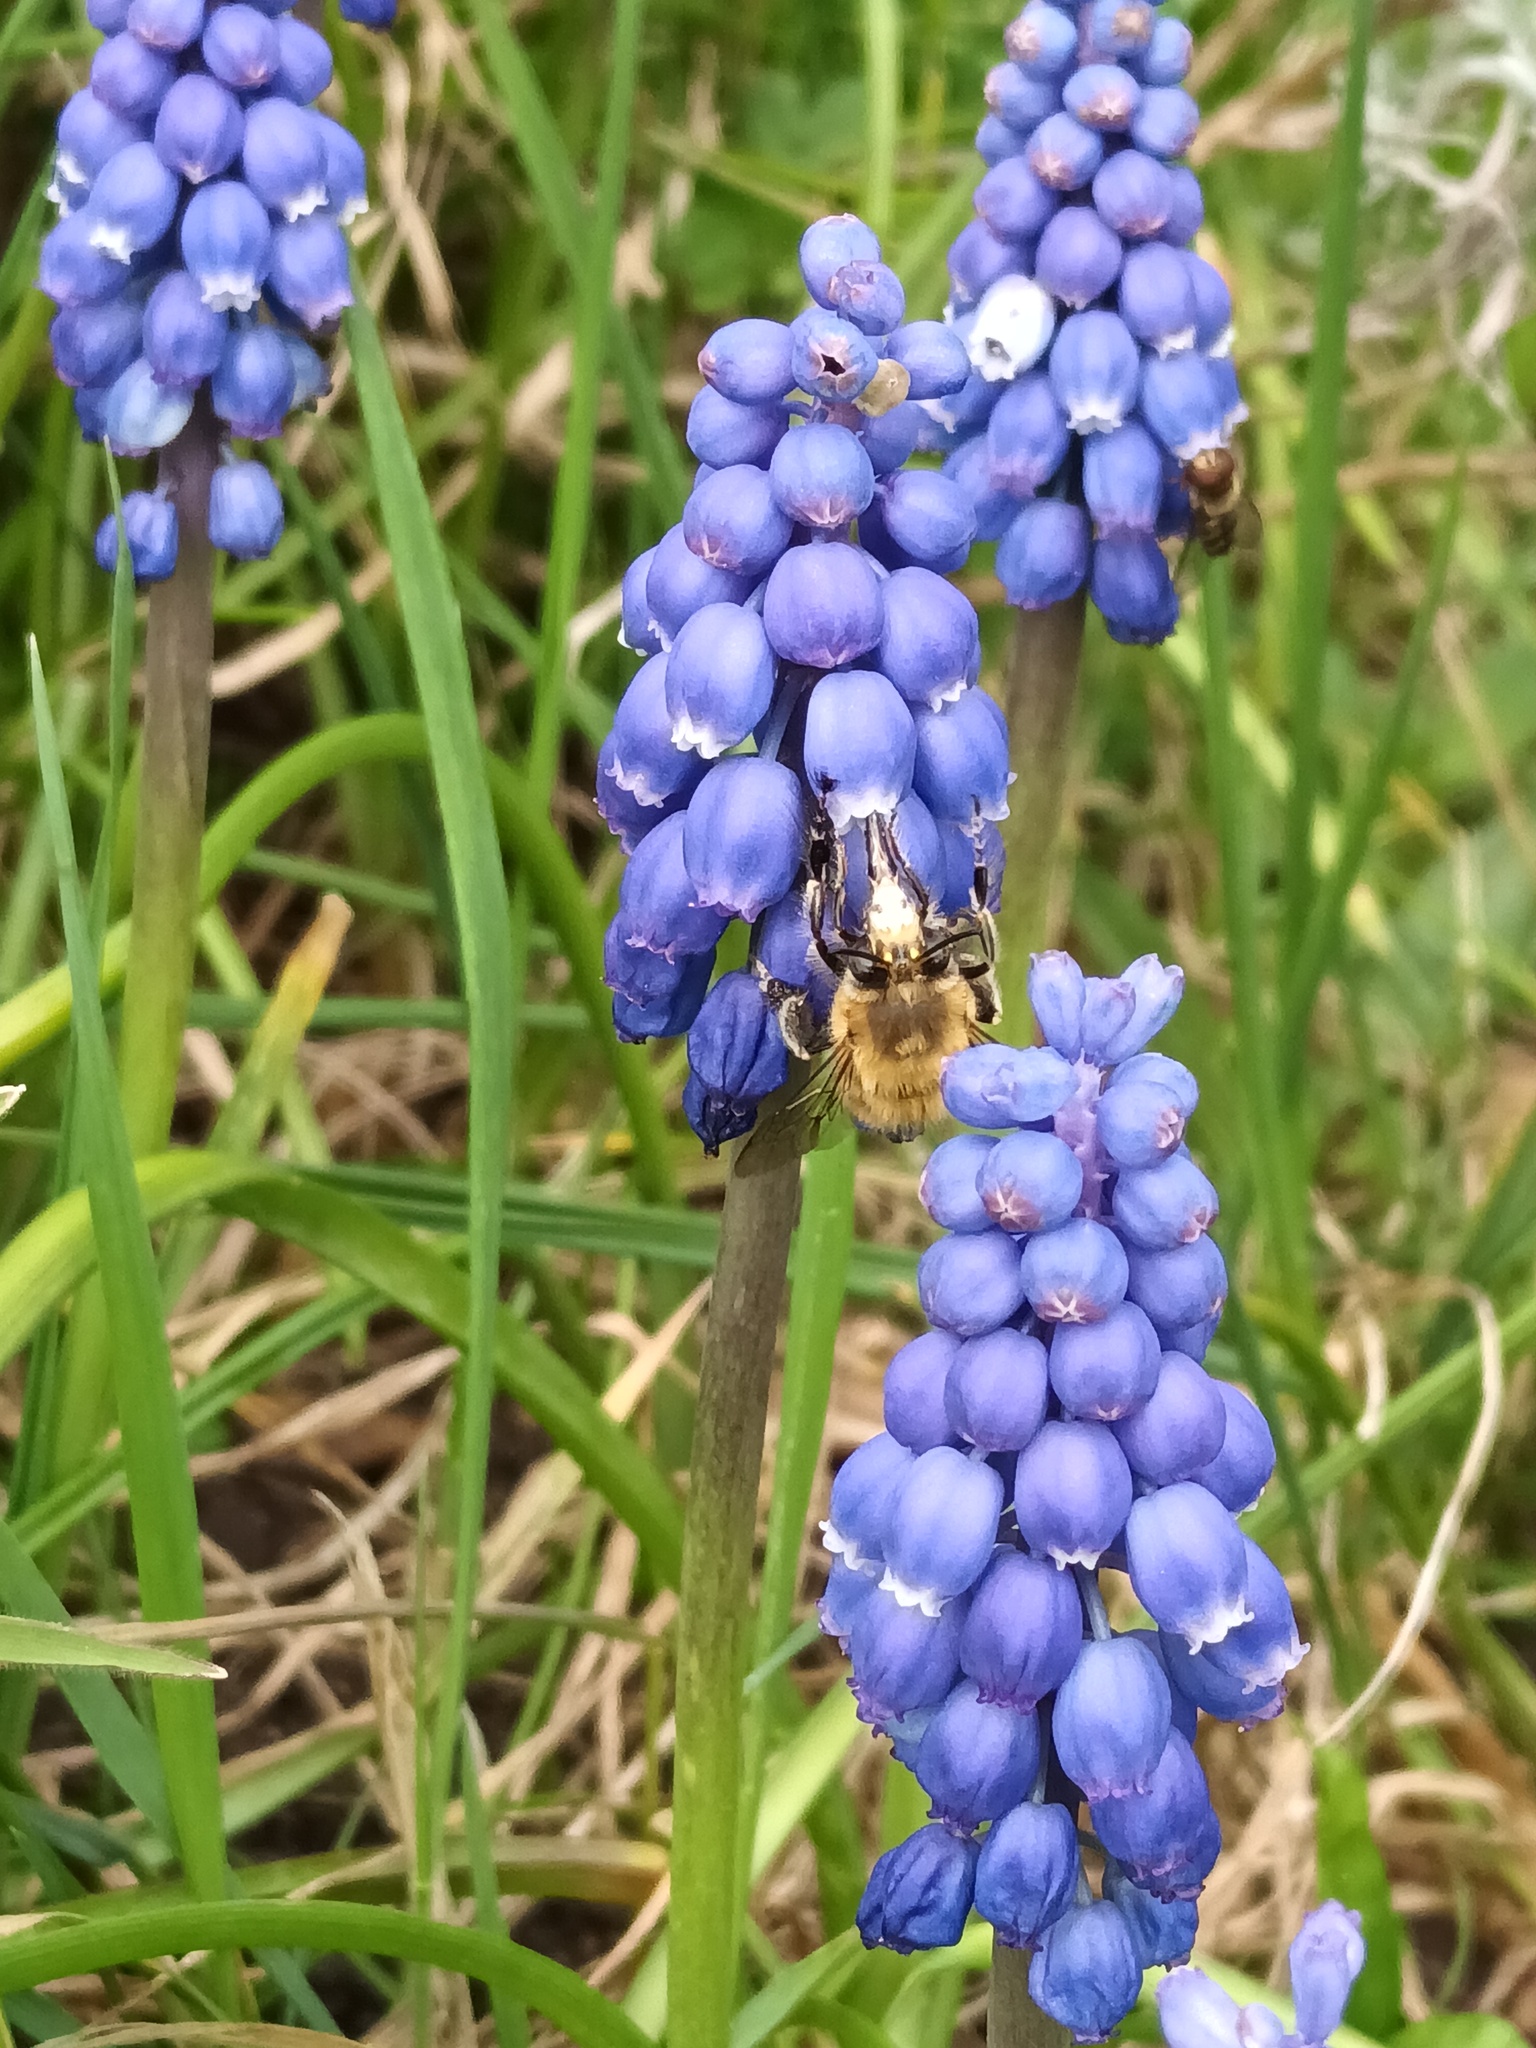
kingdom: Animalia
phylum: Arthropoda
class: Insecta
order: Hymenoptera
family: Apidae
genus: Anthophora
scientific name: Anthophora plumipes
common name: Hairy-footed flower bee
